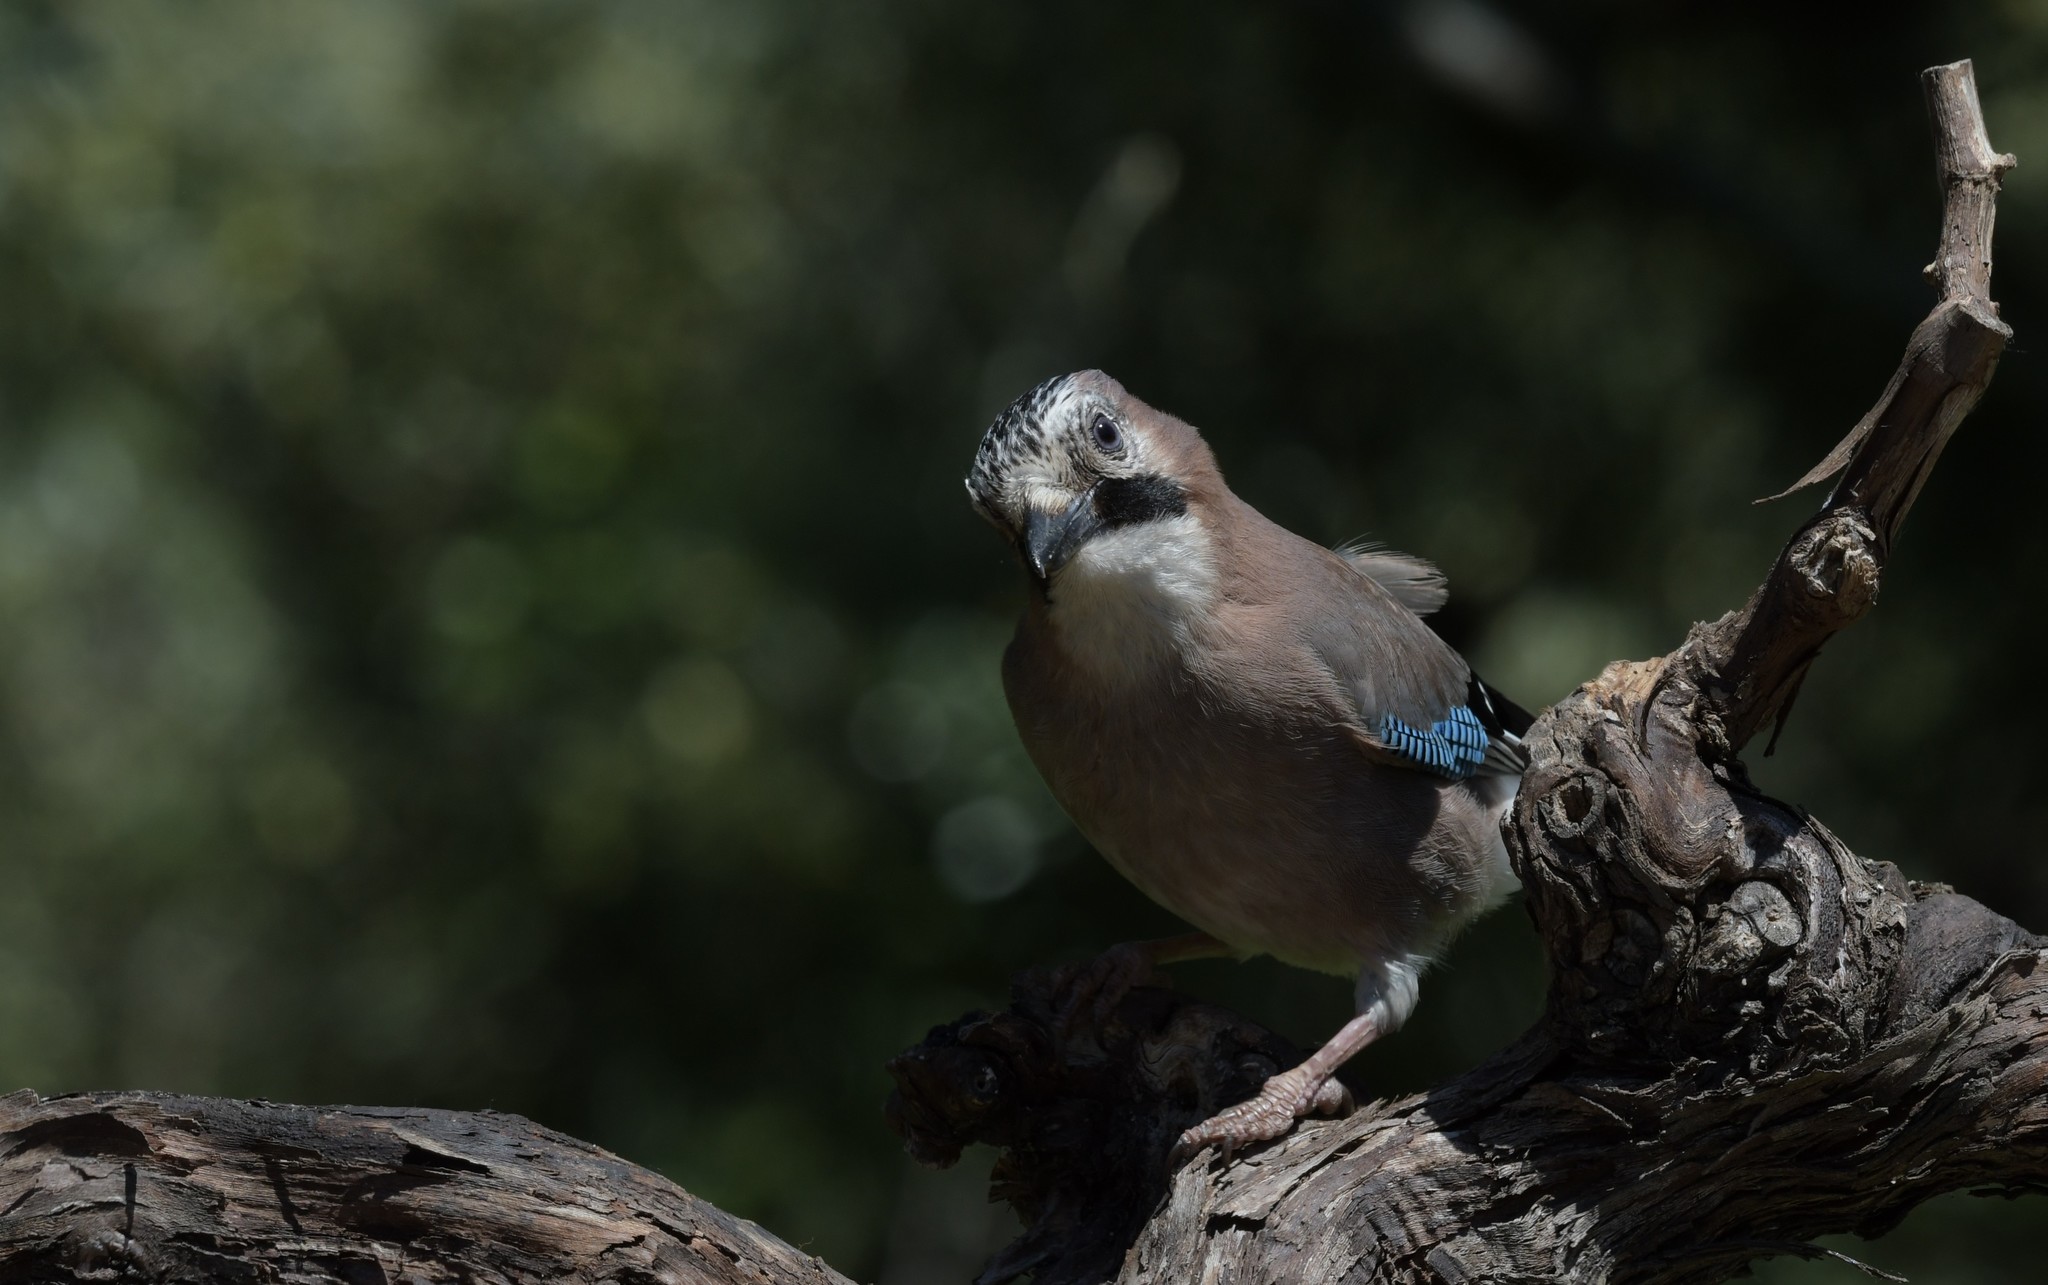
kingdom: Animalia
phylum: Chordata
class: Aves
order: Passeriformes
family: Corvidae
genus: Garrulus
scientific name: Garrulus glandarius
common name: Eurasian jay
